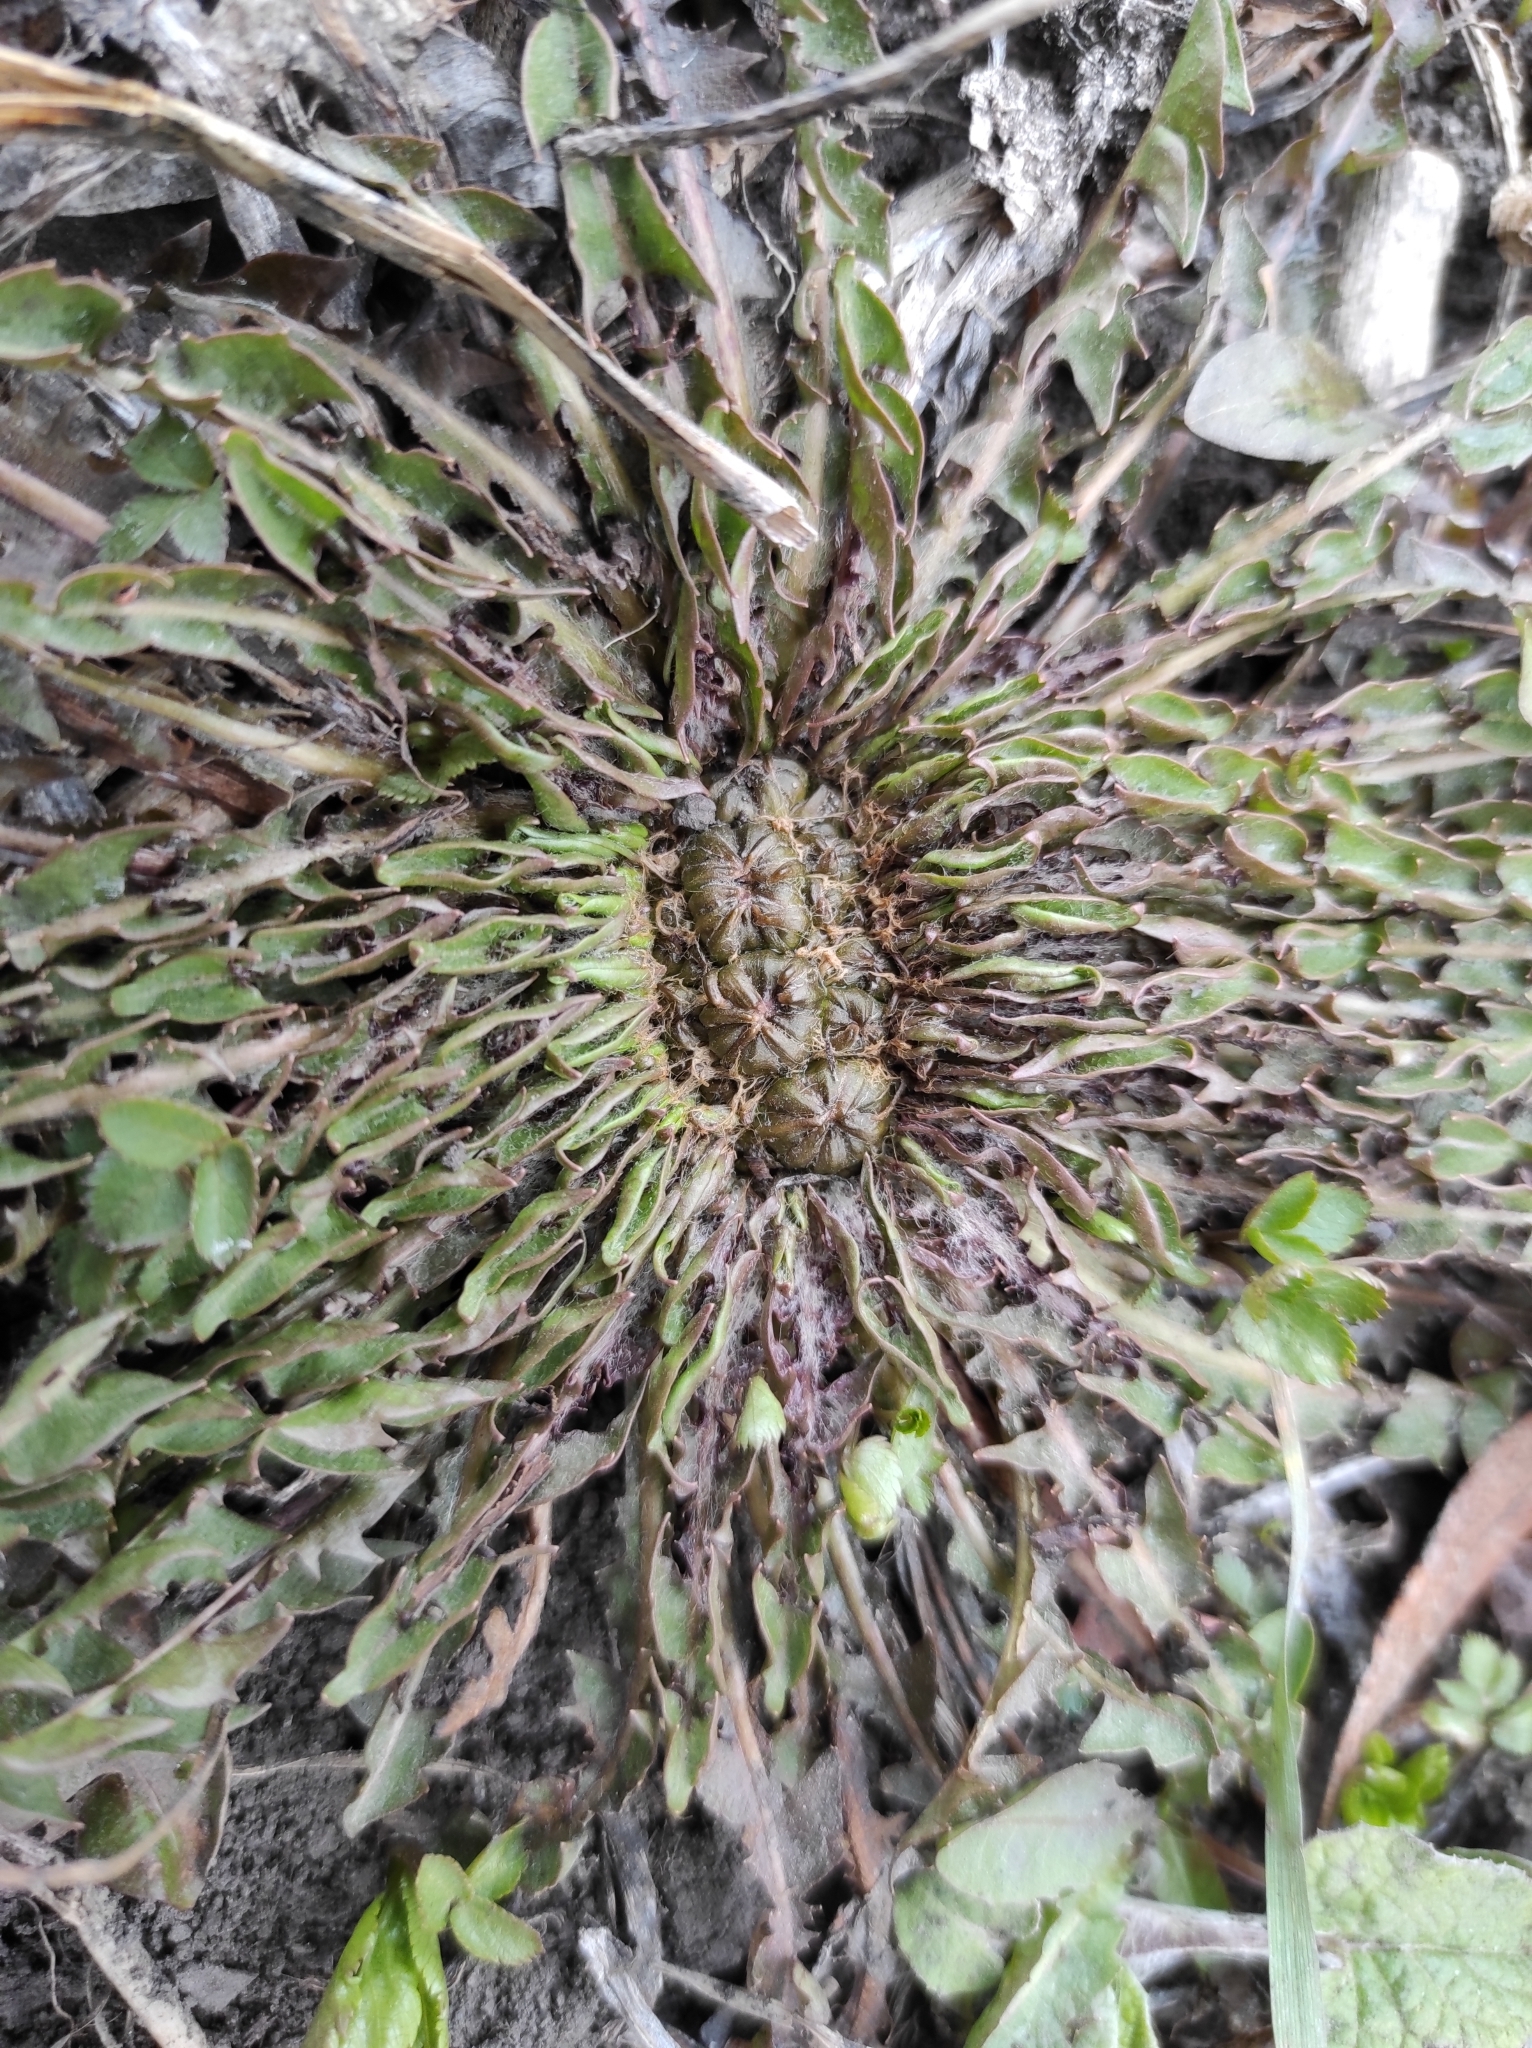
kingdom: Plantae
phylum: Tracheophyta
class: Magnoliopsida
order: Asterales
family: Asteraceae
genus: Taraxacum
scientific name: Taraxacum officinale
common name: Common dandelion
